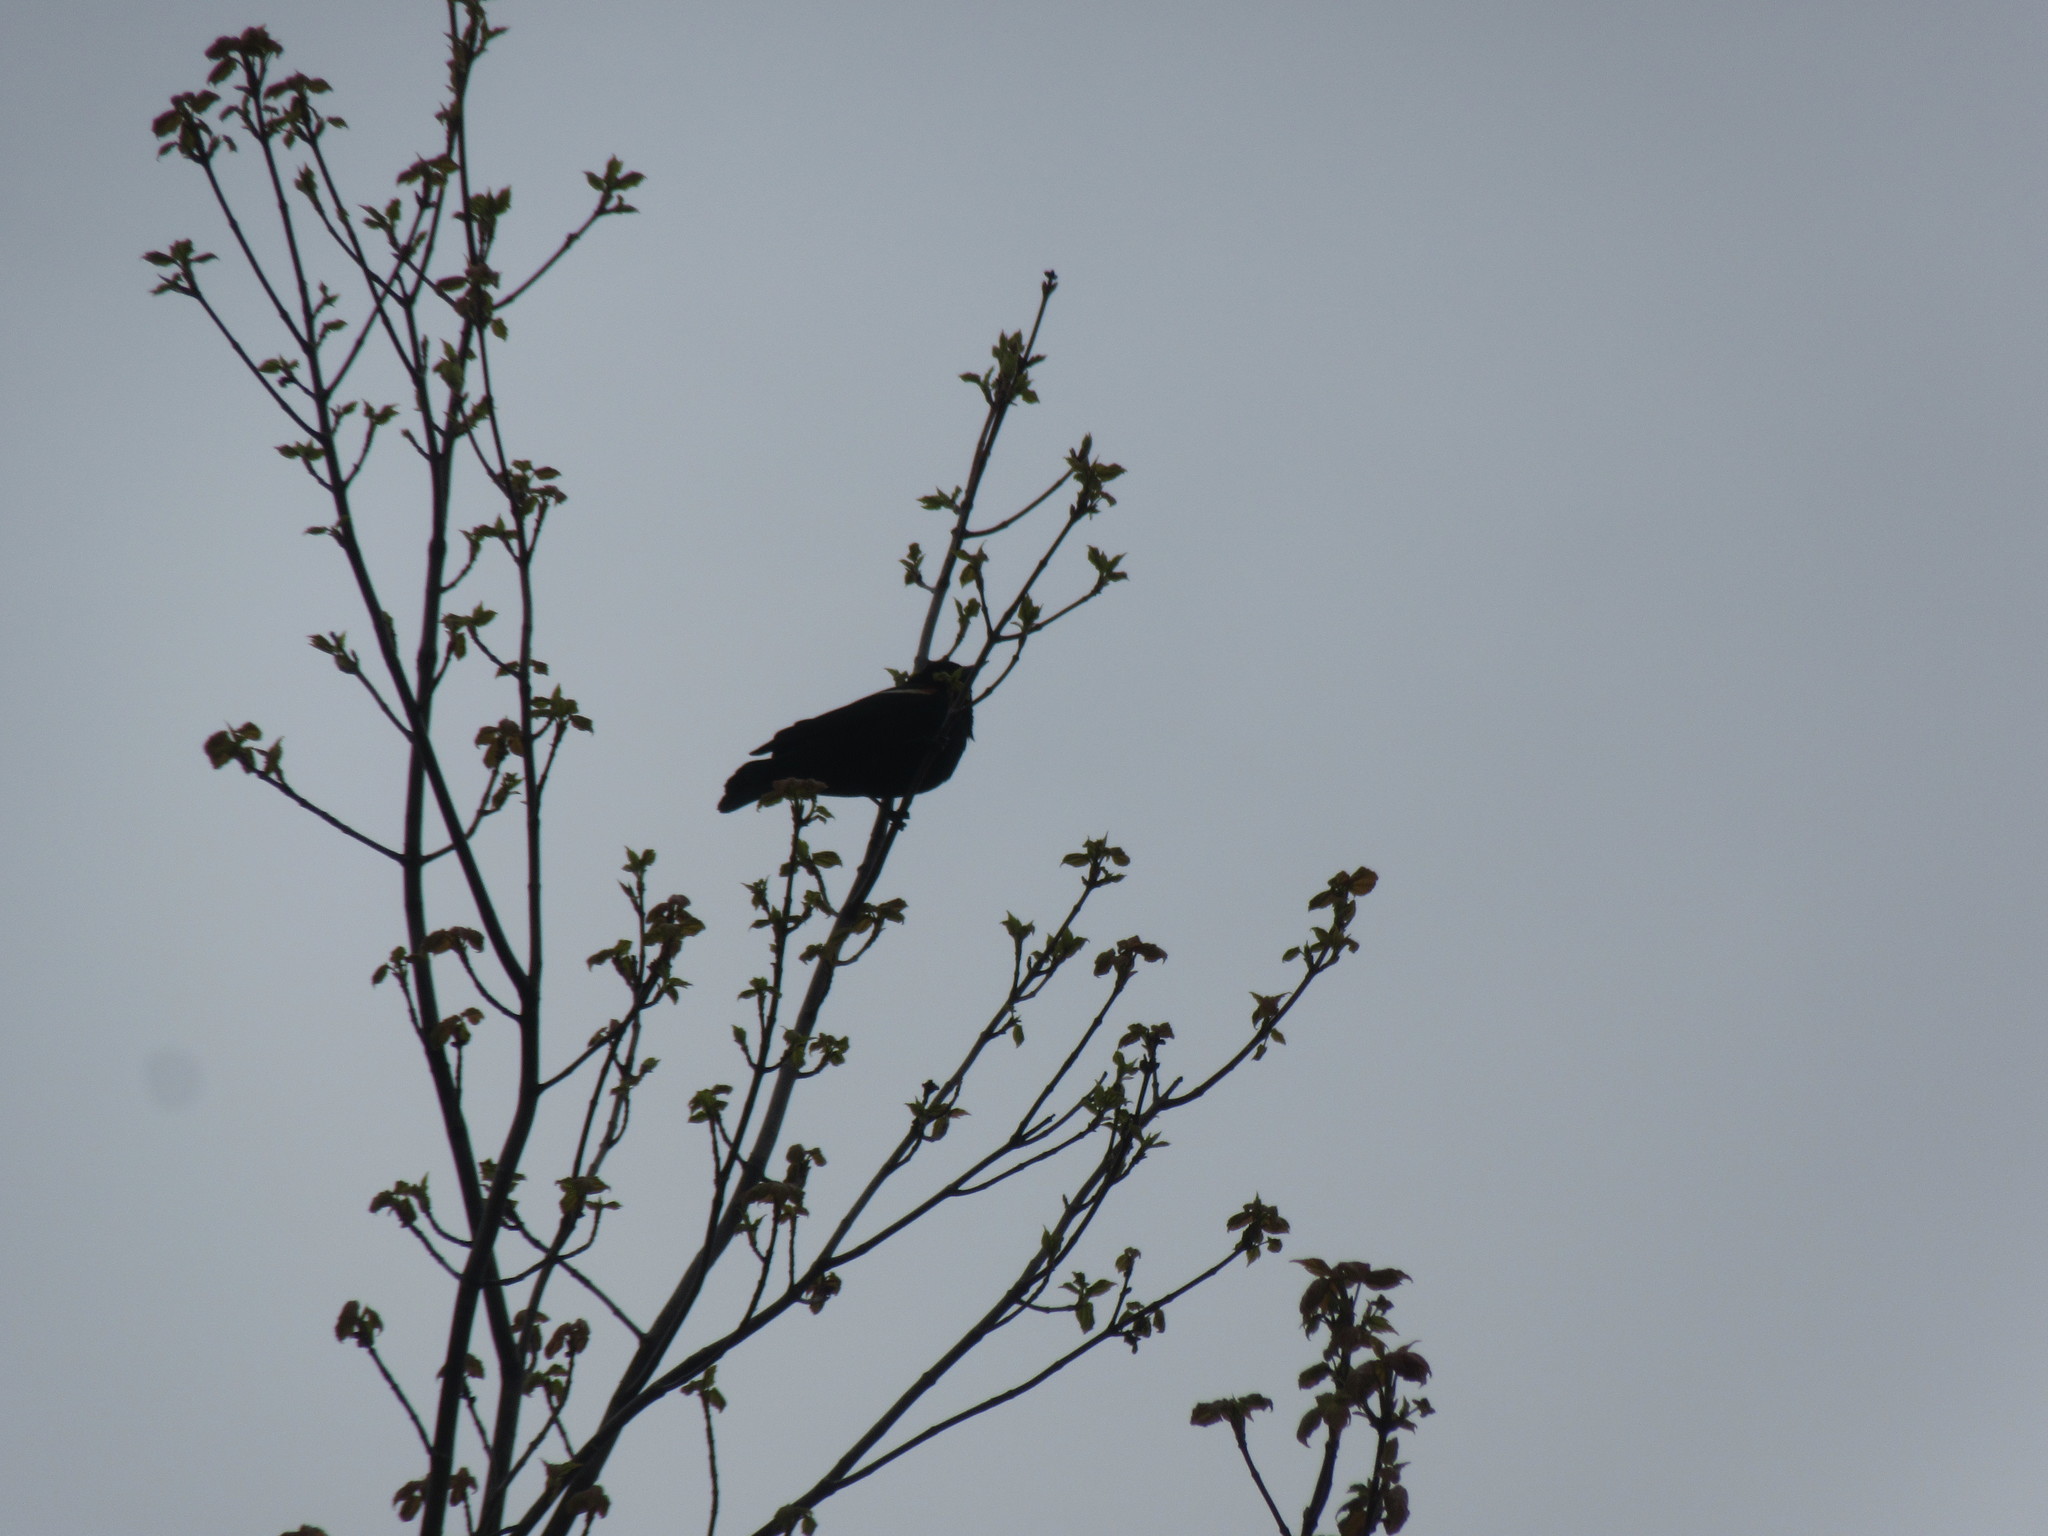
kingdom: Animalia
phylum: Chordata
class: Aves
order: Passeriformes
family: Icteridae
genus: Agelaius
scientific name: Agelaius phoeniceus
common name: Red-winged blackbird
